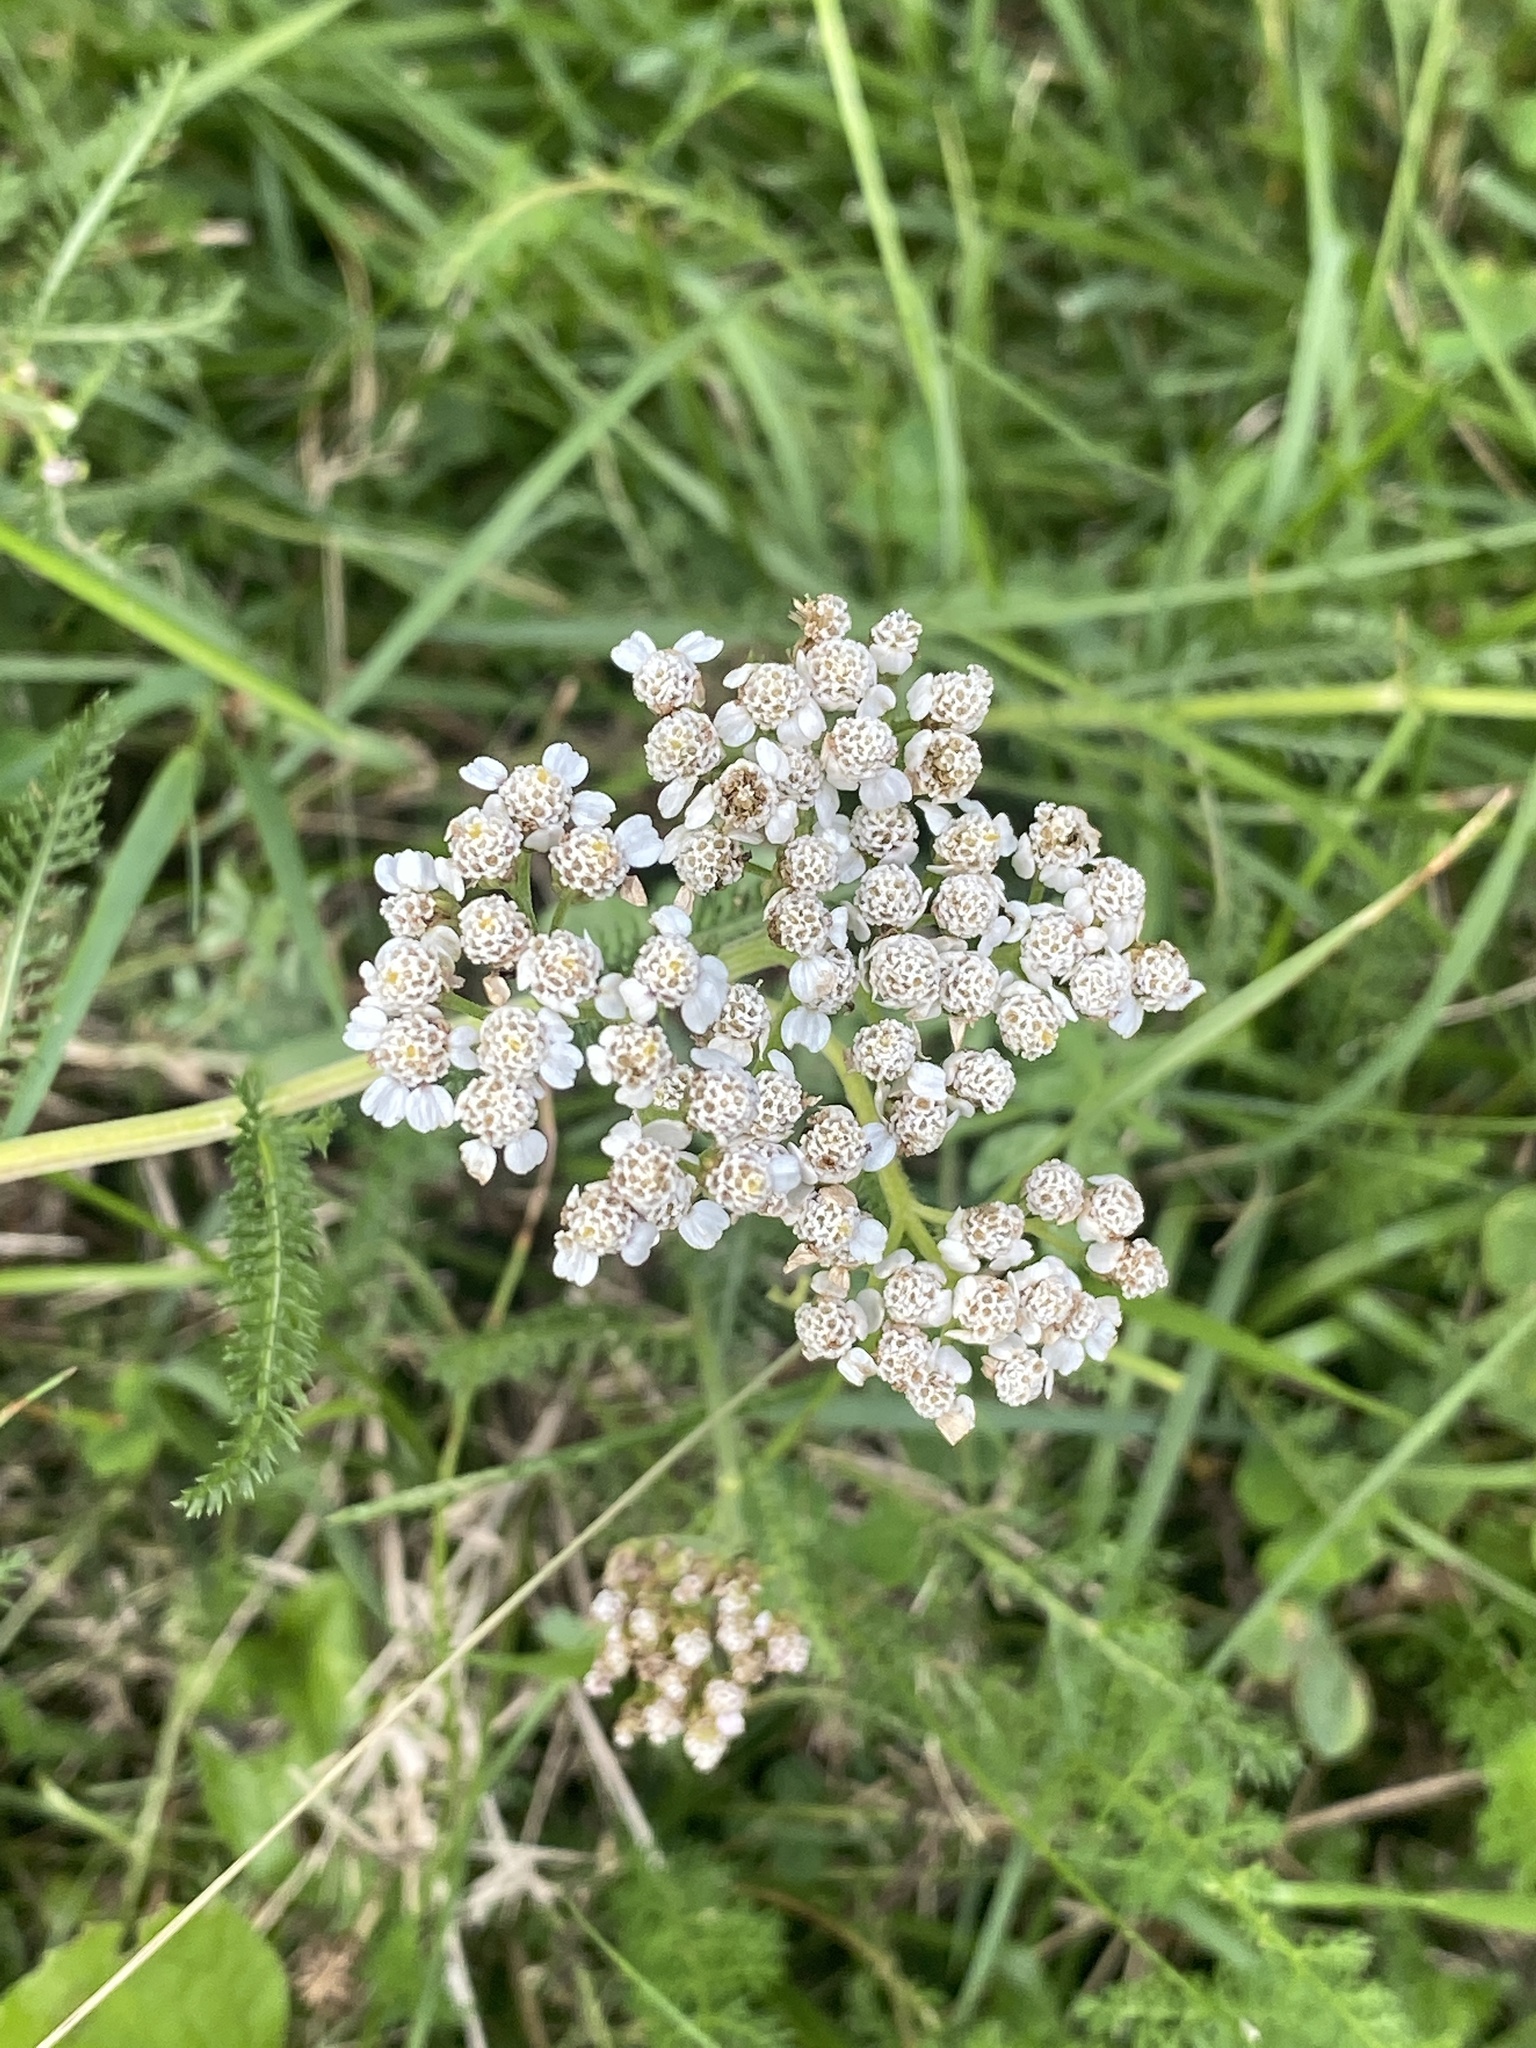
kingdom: Plantae
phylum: Tracheophyta
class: Magnoliopsida
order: Asterales
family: Asteraceae
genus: Achillea
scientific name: Achillea millefolium
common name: Yarrow
